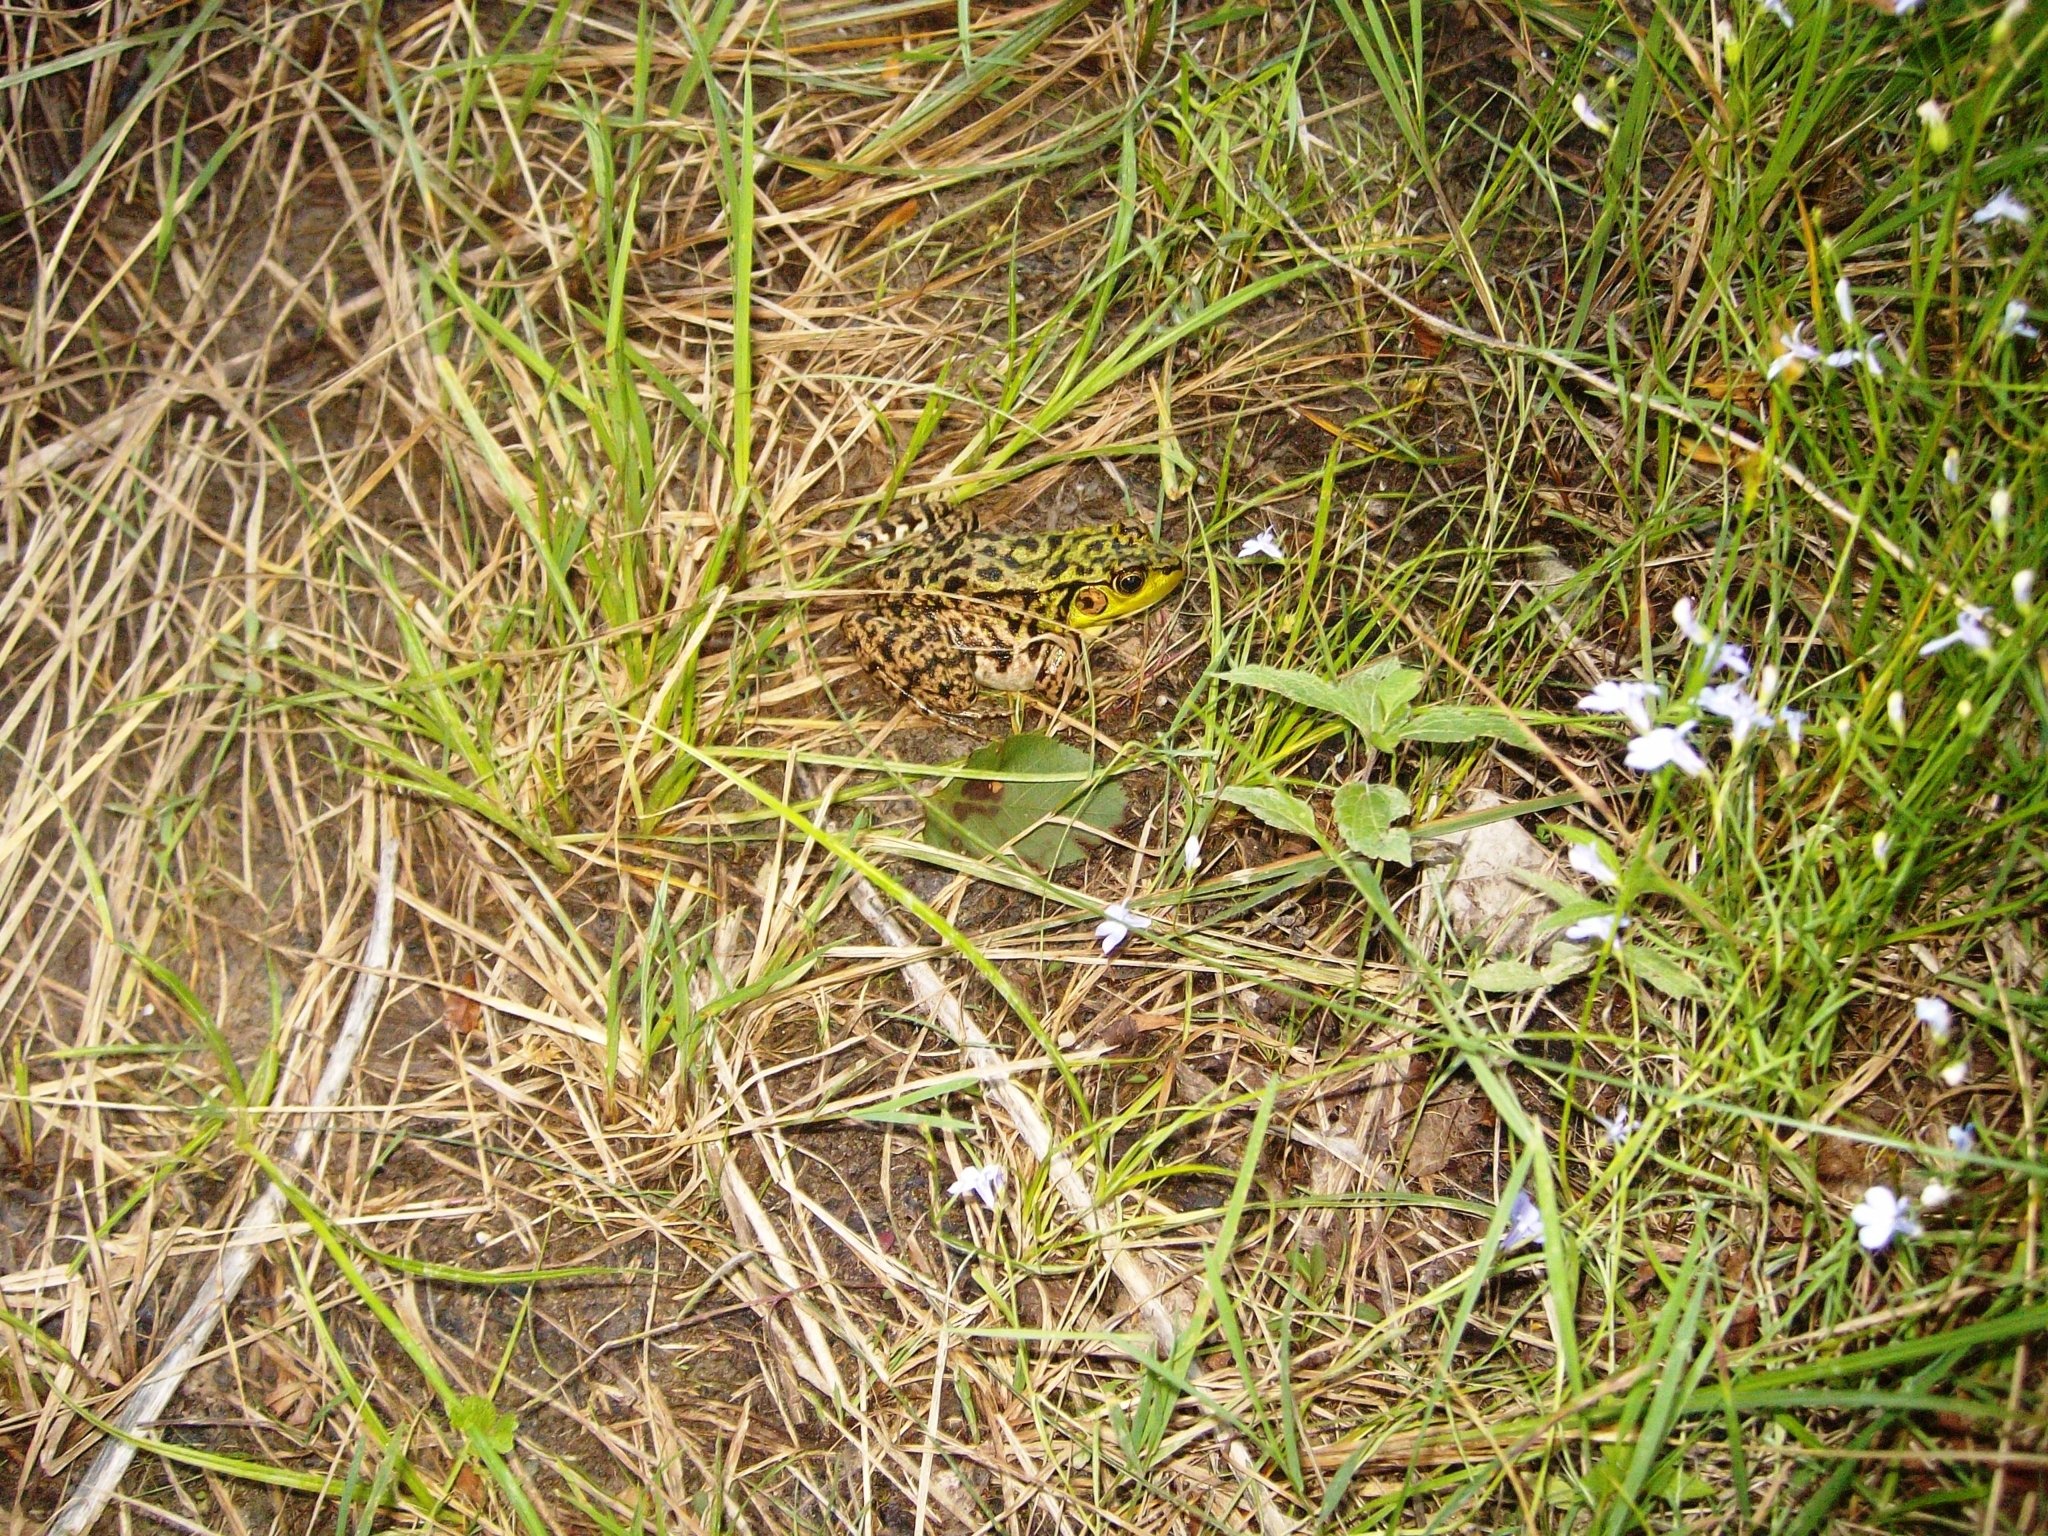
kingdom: Animalia
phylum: Chordata
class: Amphibia
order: Anura
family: Ranidae
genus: Lithobates
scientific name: Lithobates clamitans
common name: Green frog
